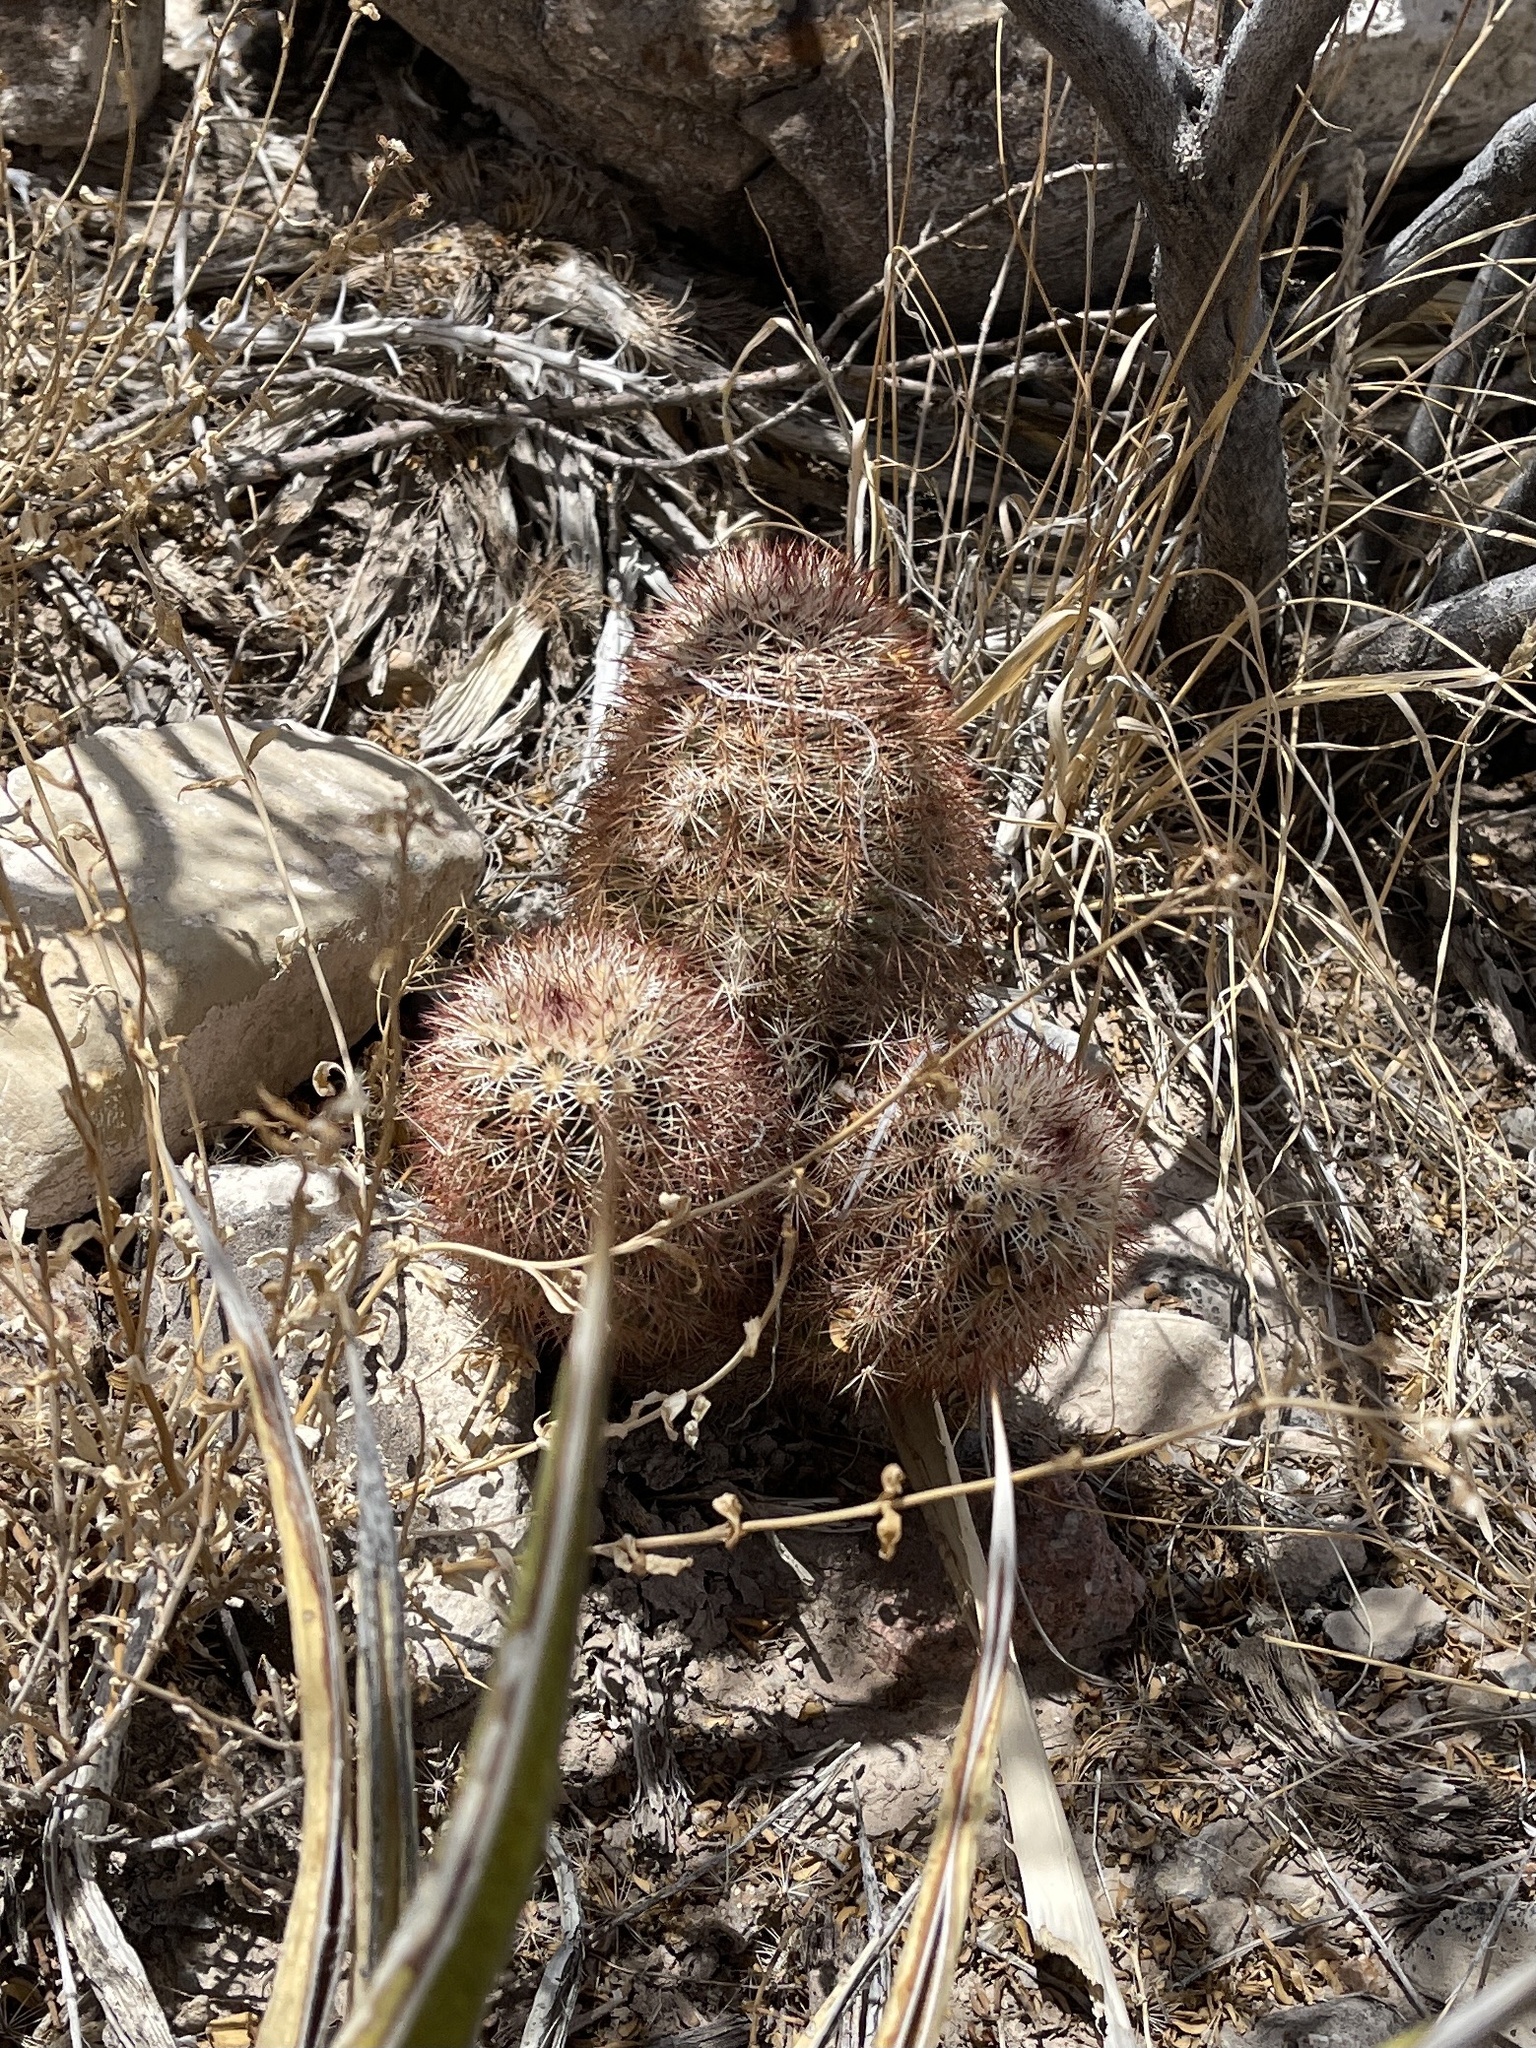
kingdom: Plantae
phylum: Tracheophyta
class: Magnoliopsida
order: Caryophyllales
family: Cactaceae
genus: Echinocereus
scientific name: Echinocereus dasyacanthus
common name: Spiny hedgehog cactus
